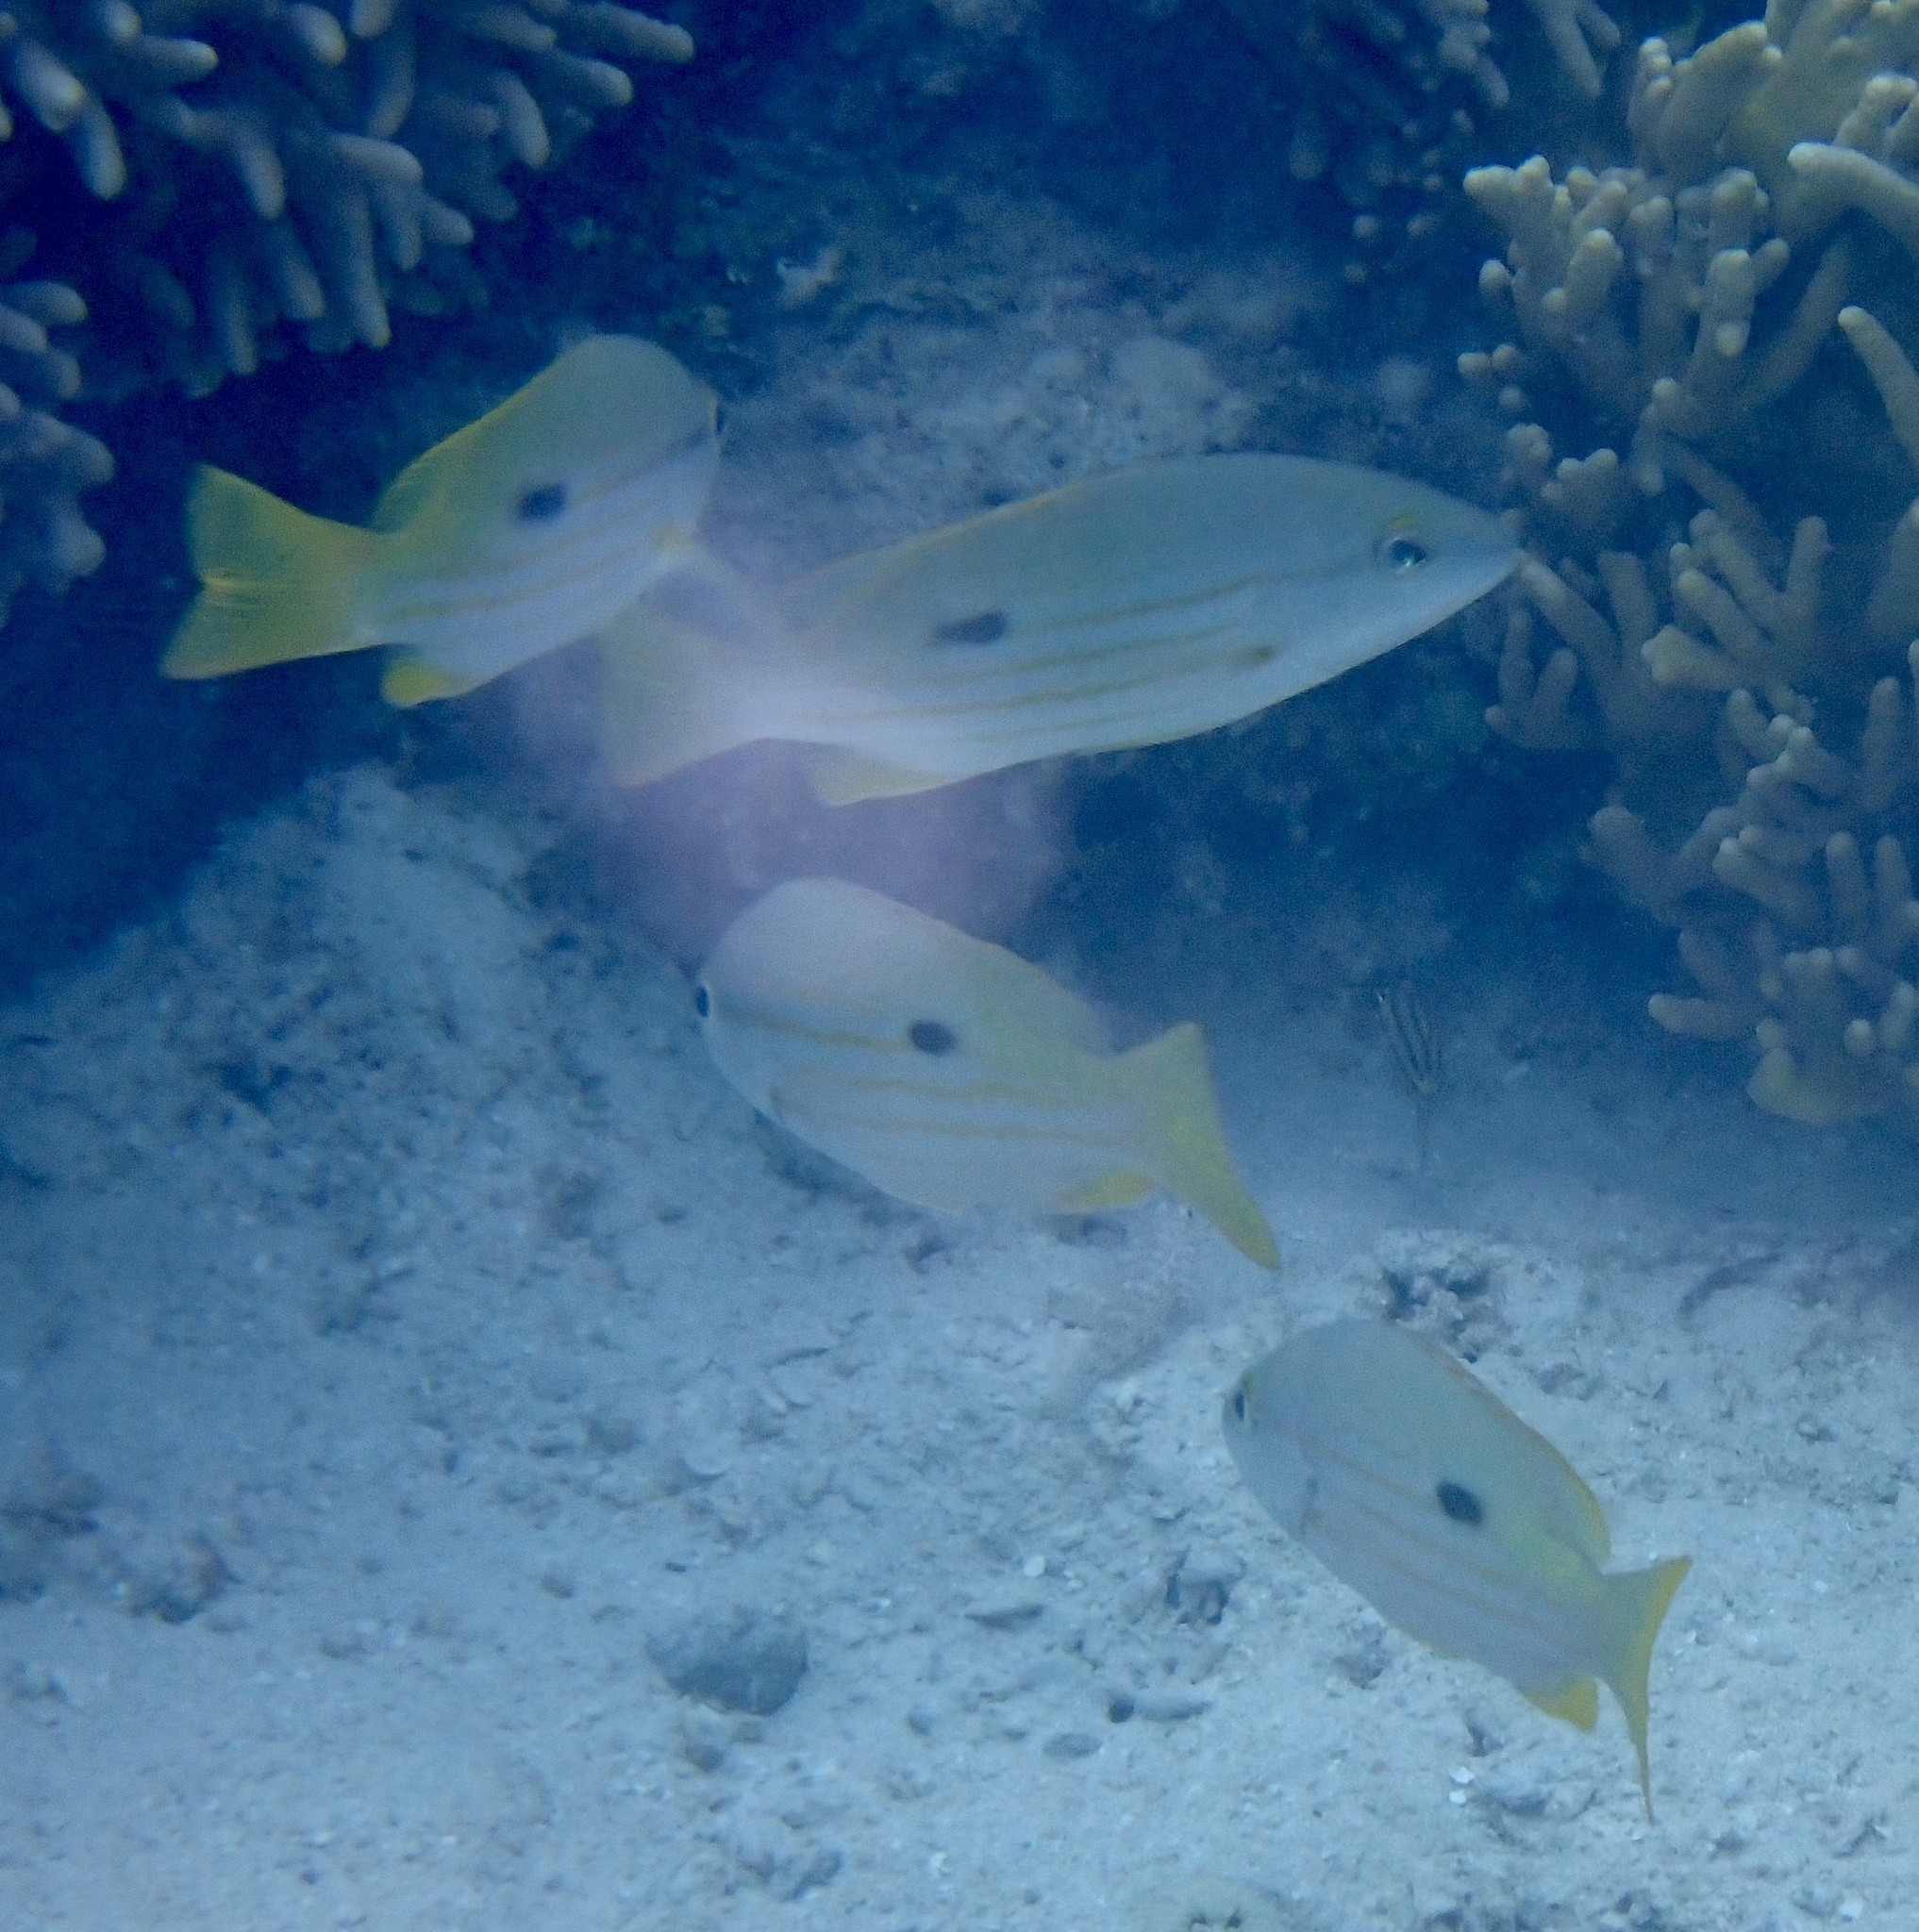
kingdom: Animalia
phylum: Chordata
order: Perciformes
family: Lutjanidae
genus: Lutjanus
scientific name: Lutjanus fulviflamma
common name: Blackspot snapper
